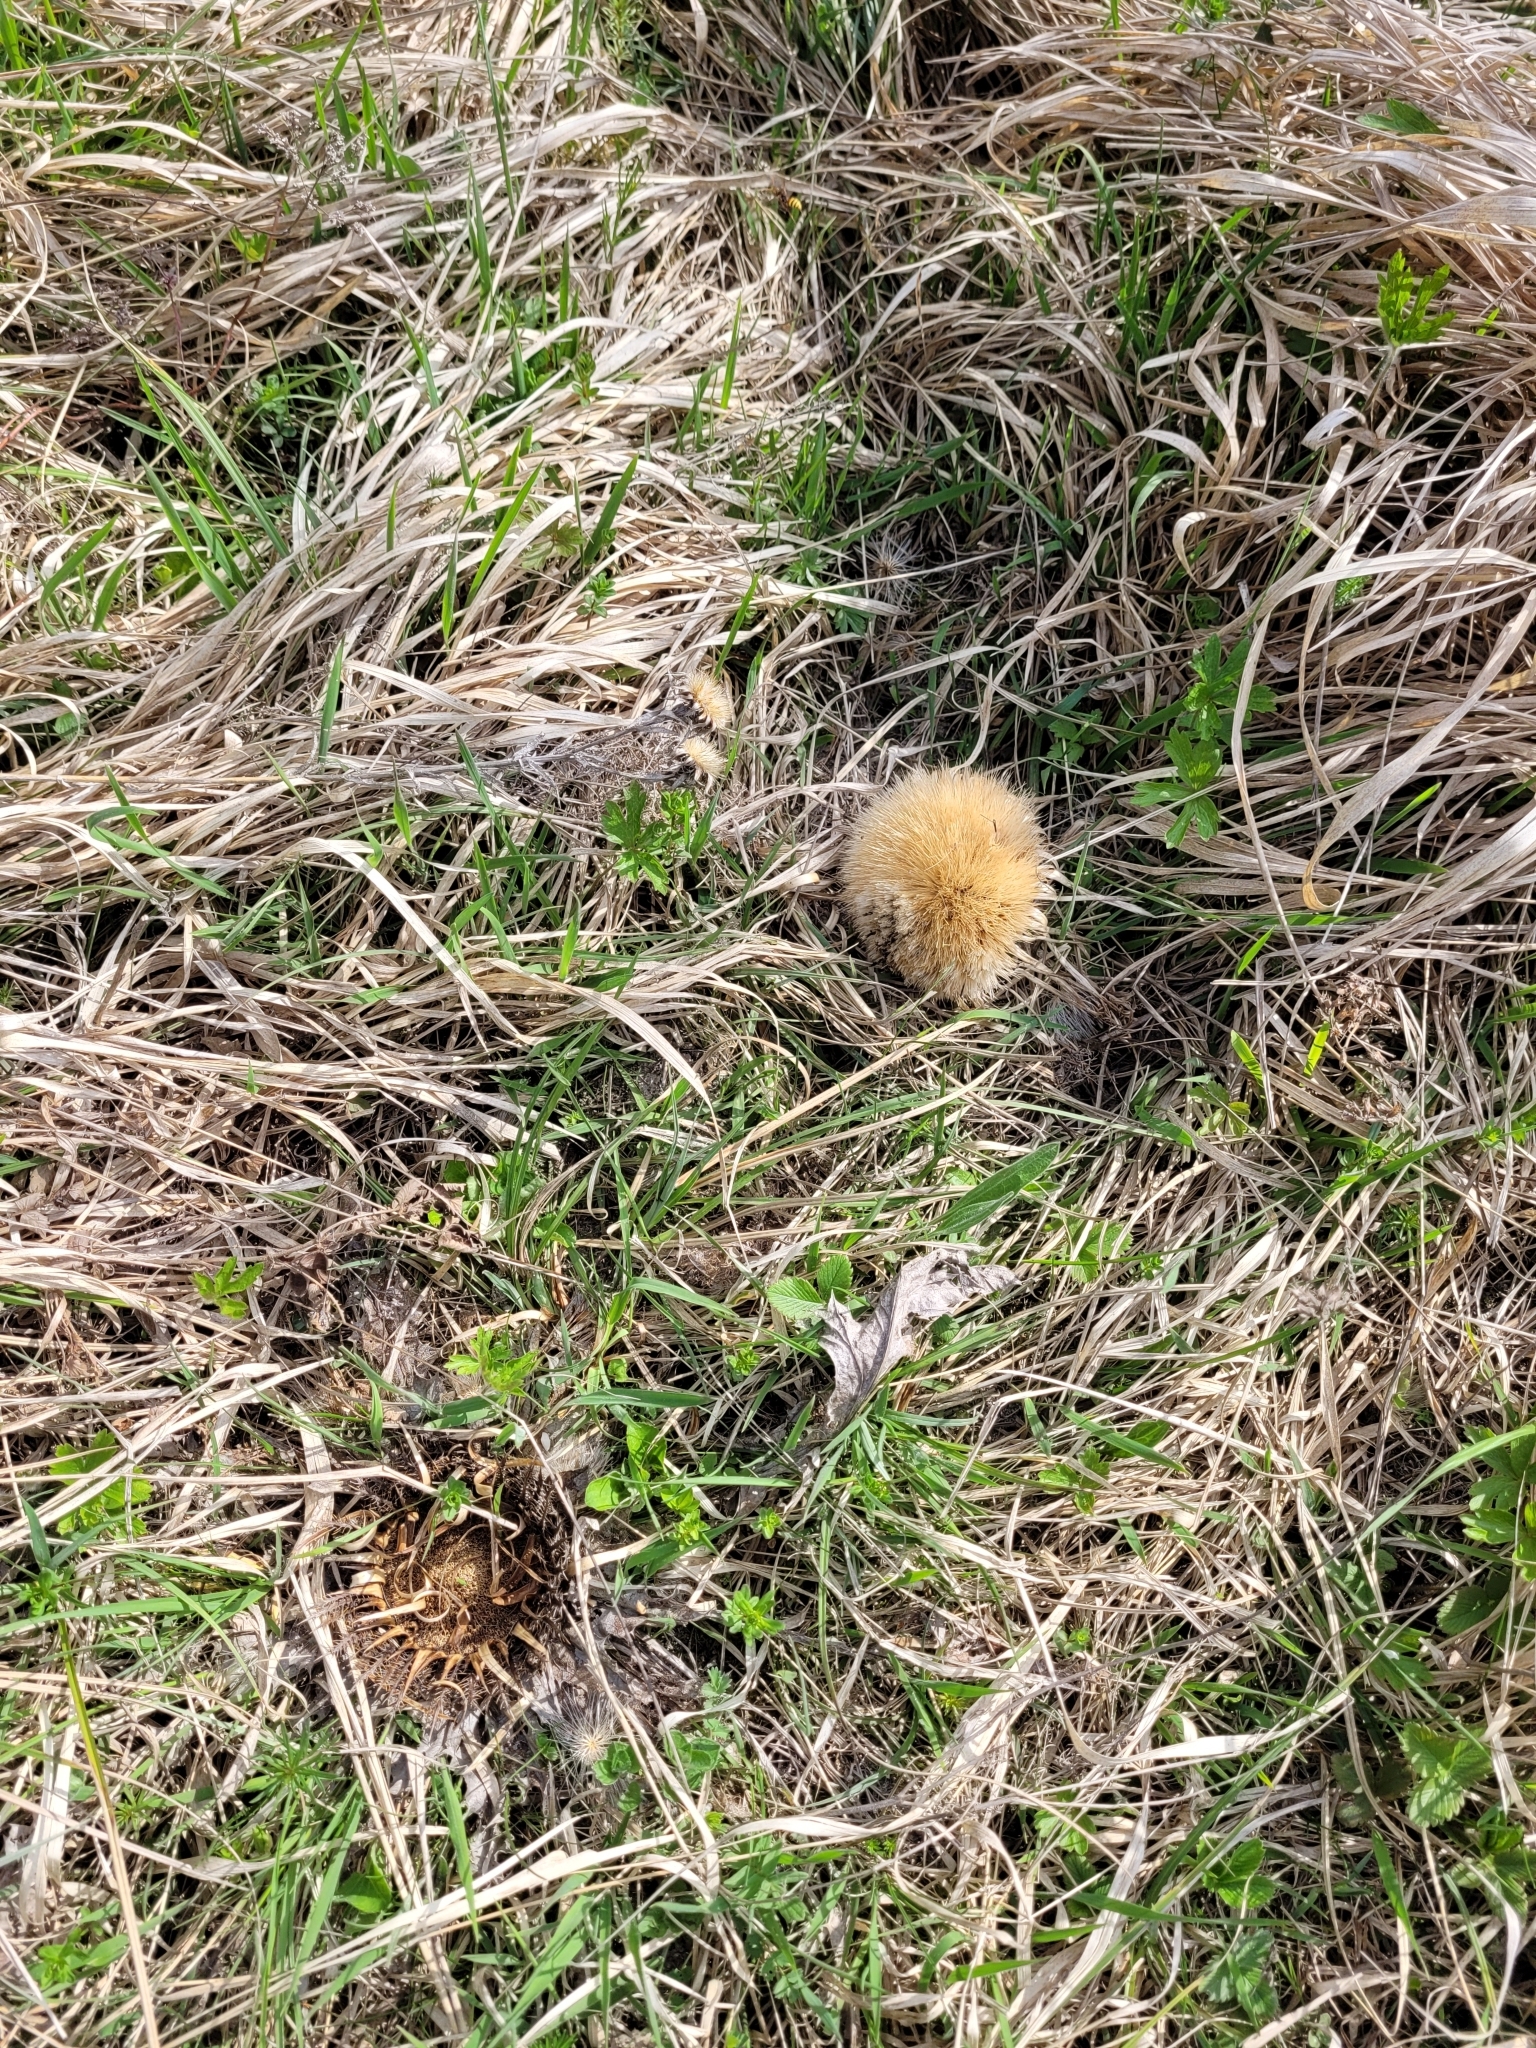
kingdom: Plantae
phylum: Tracheophyta
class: Magnoliopsida
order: Asterales
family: Asteraceae
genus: Carlina
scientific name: Carlina acanthifolia
